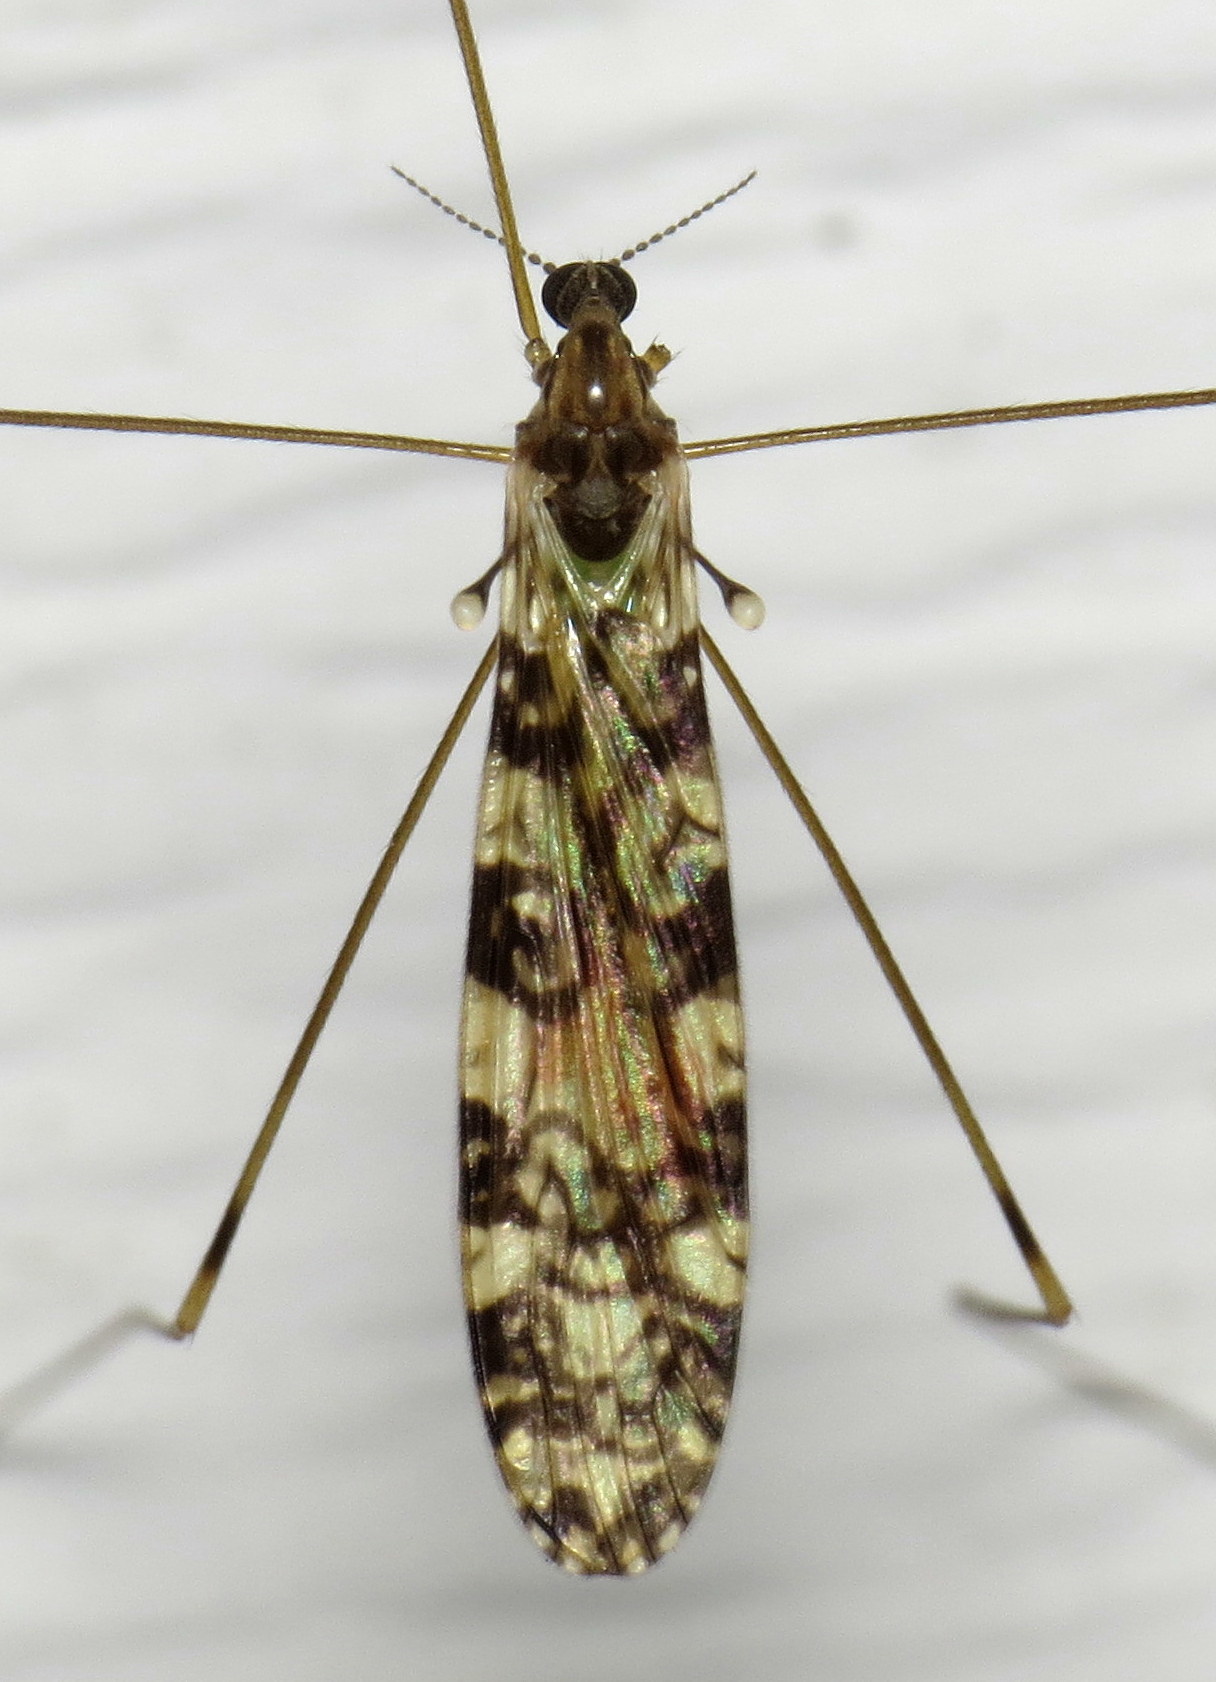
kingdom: Animalia
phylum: Arthropoda
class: Insecta
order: Diptera
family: Limoniidae
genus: Limonia
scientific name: Limonia annulata
